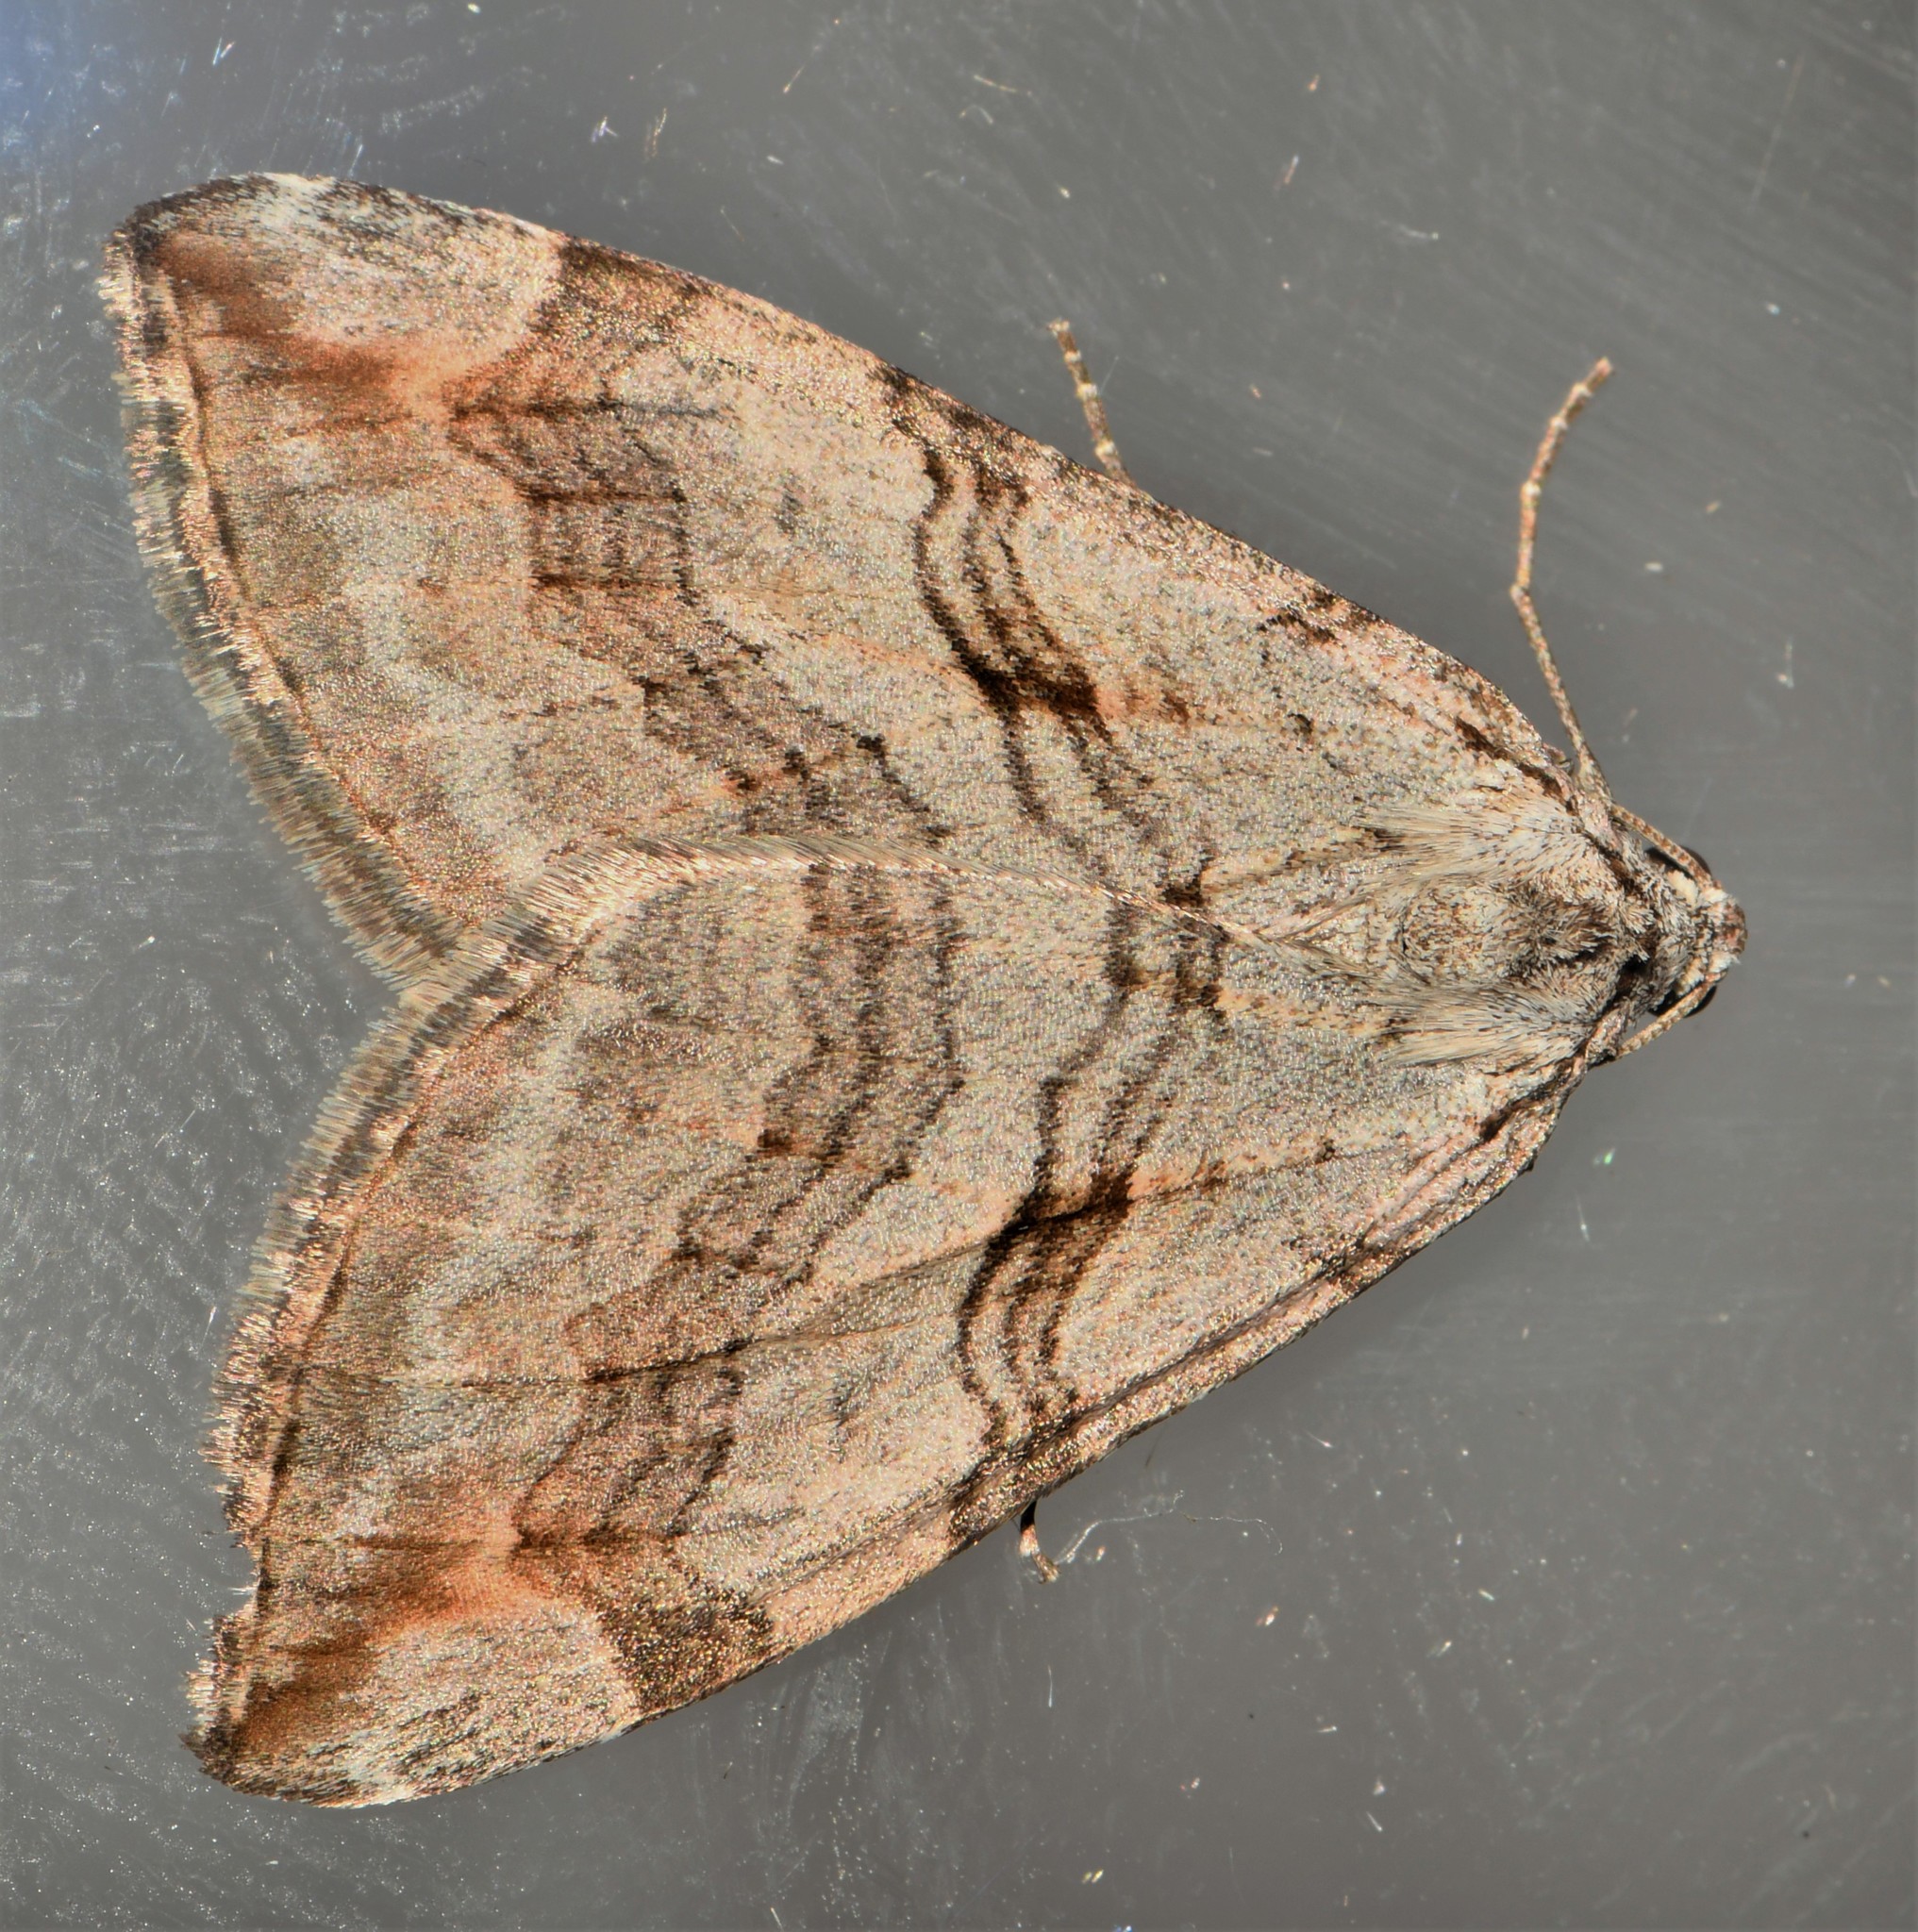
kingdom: Animalia
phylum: Arthropoda
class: Insecta
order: Lepidoptera
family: Geometridae
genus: Aplocera
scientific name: Aplocera efformata
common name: Lesser treble-bar
